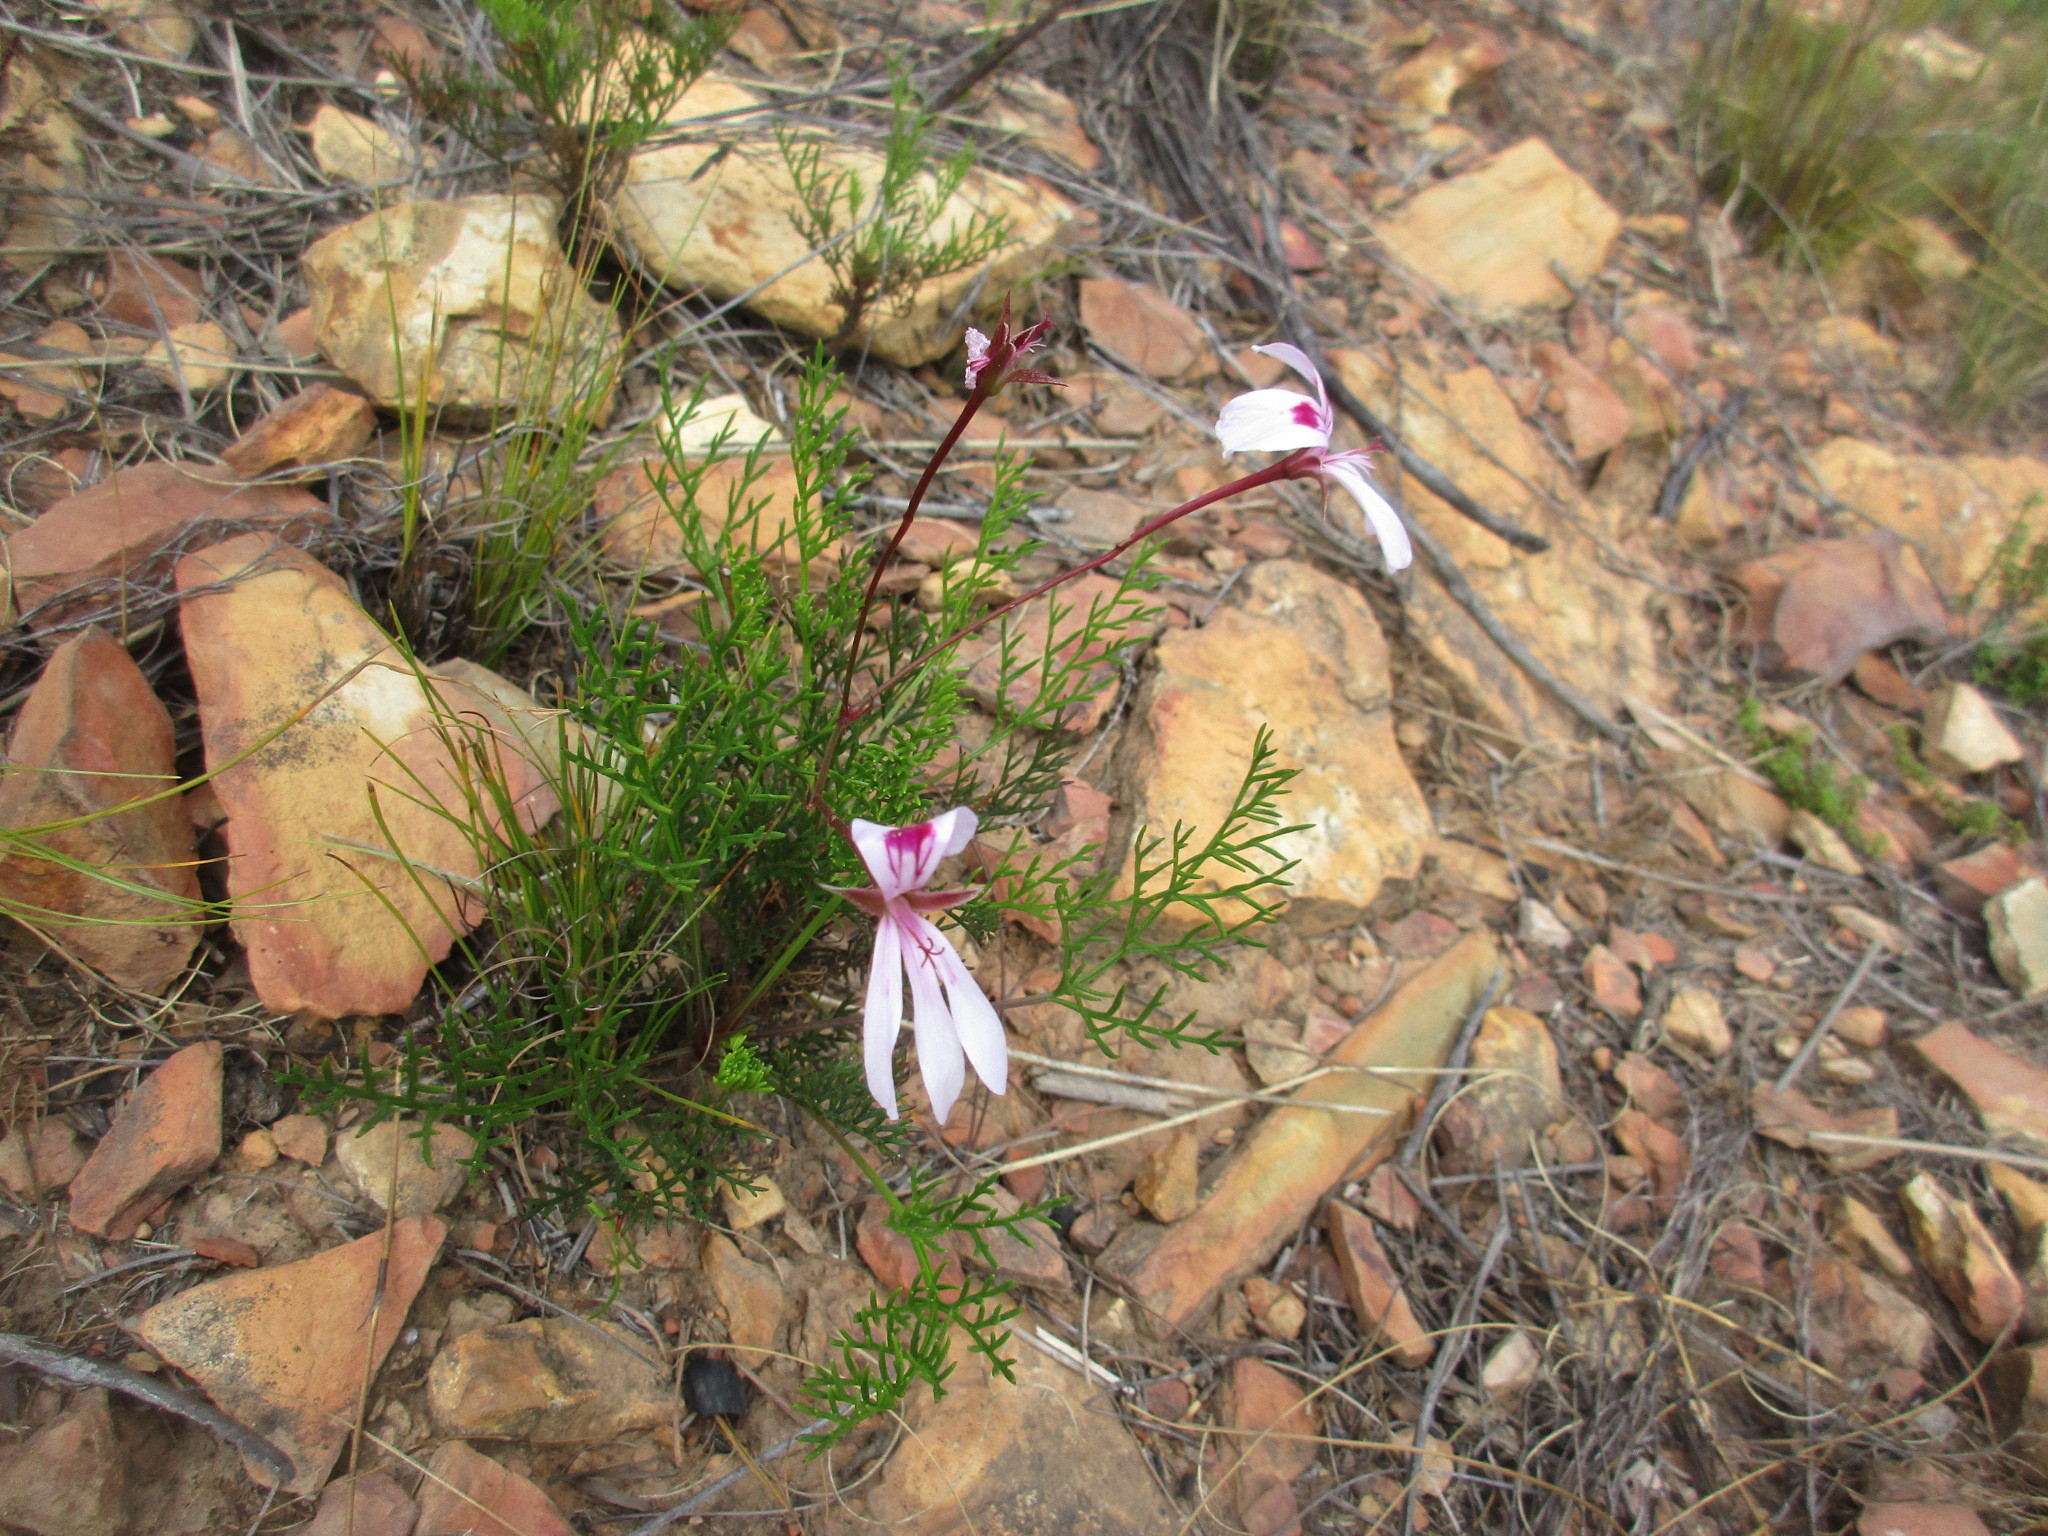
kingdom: Plantae
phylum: Tracheophyta
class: Magnoliopsida
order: Geraniales
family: Geraniaceae
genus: Pelargonium
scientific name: Pelargonium artemisiifolium
